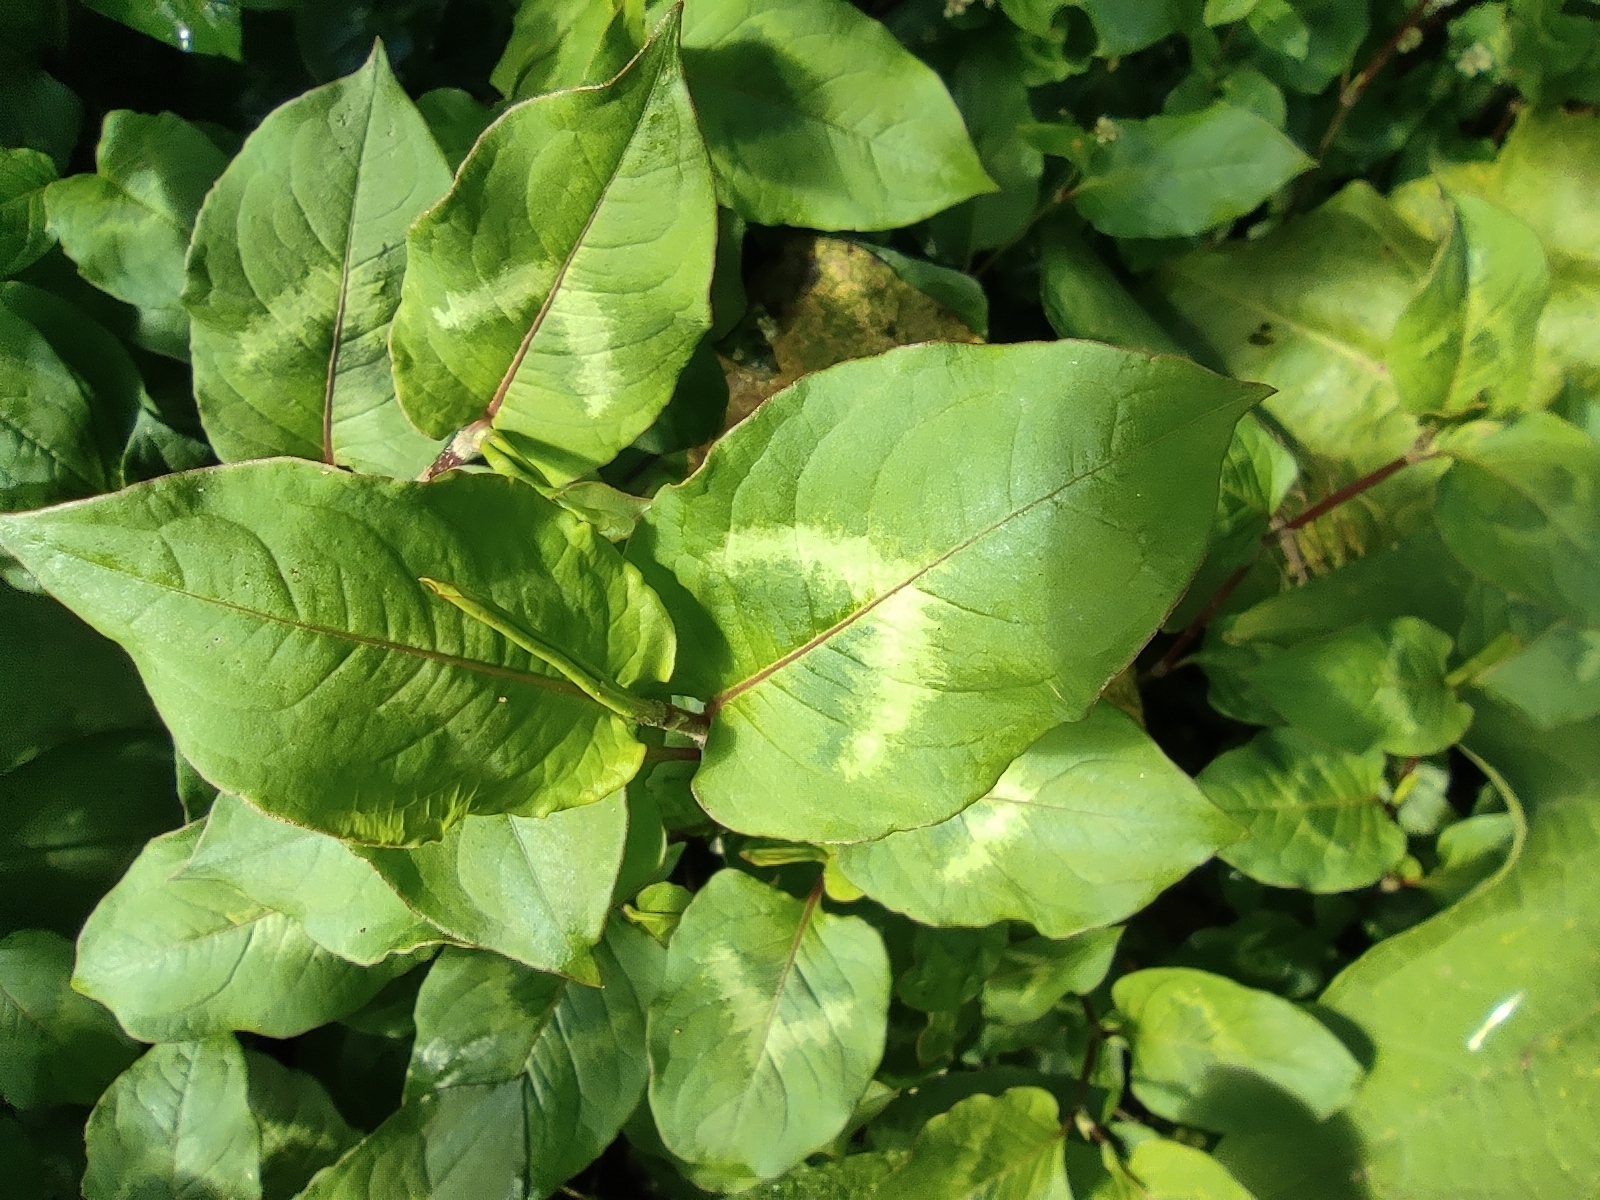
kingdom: Plantae
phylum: Tracheophyta
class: Magnoliopsida
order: Caryophyllales
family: Polygonaceae
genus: Persicaria
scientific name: Persicaria chinensis
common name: Chinese knotweed
